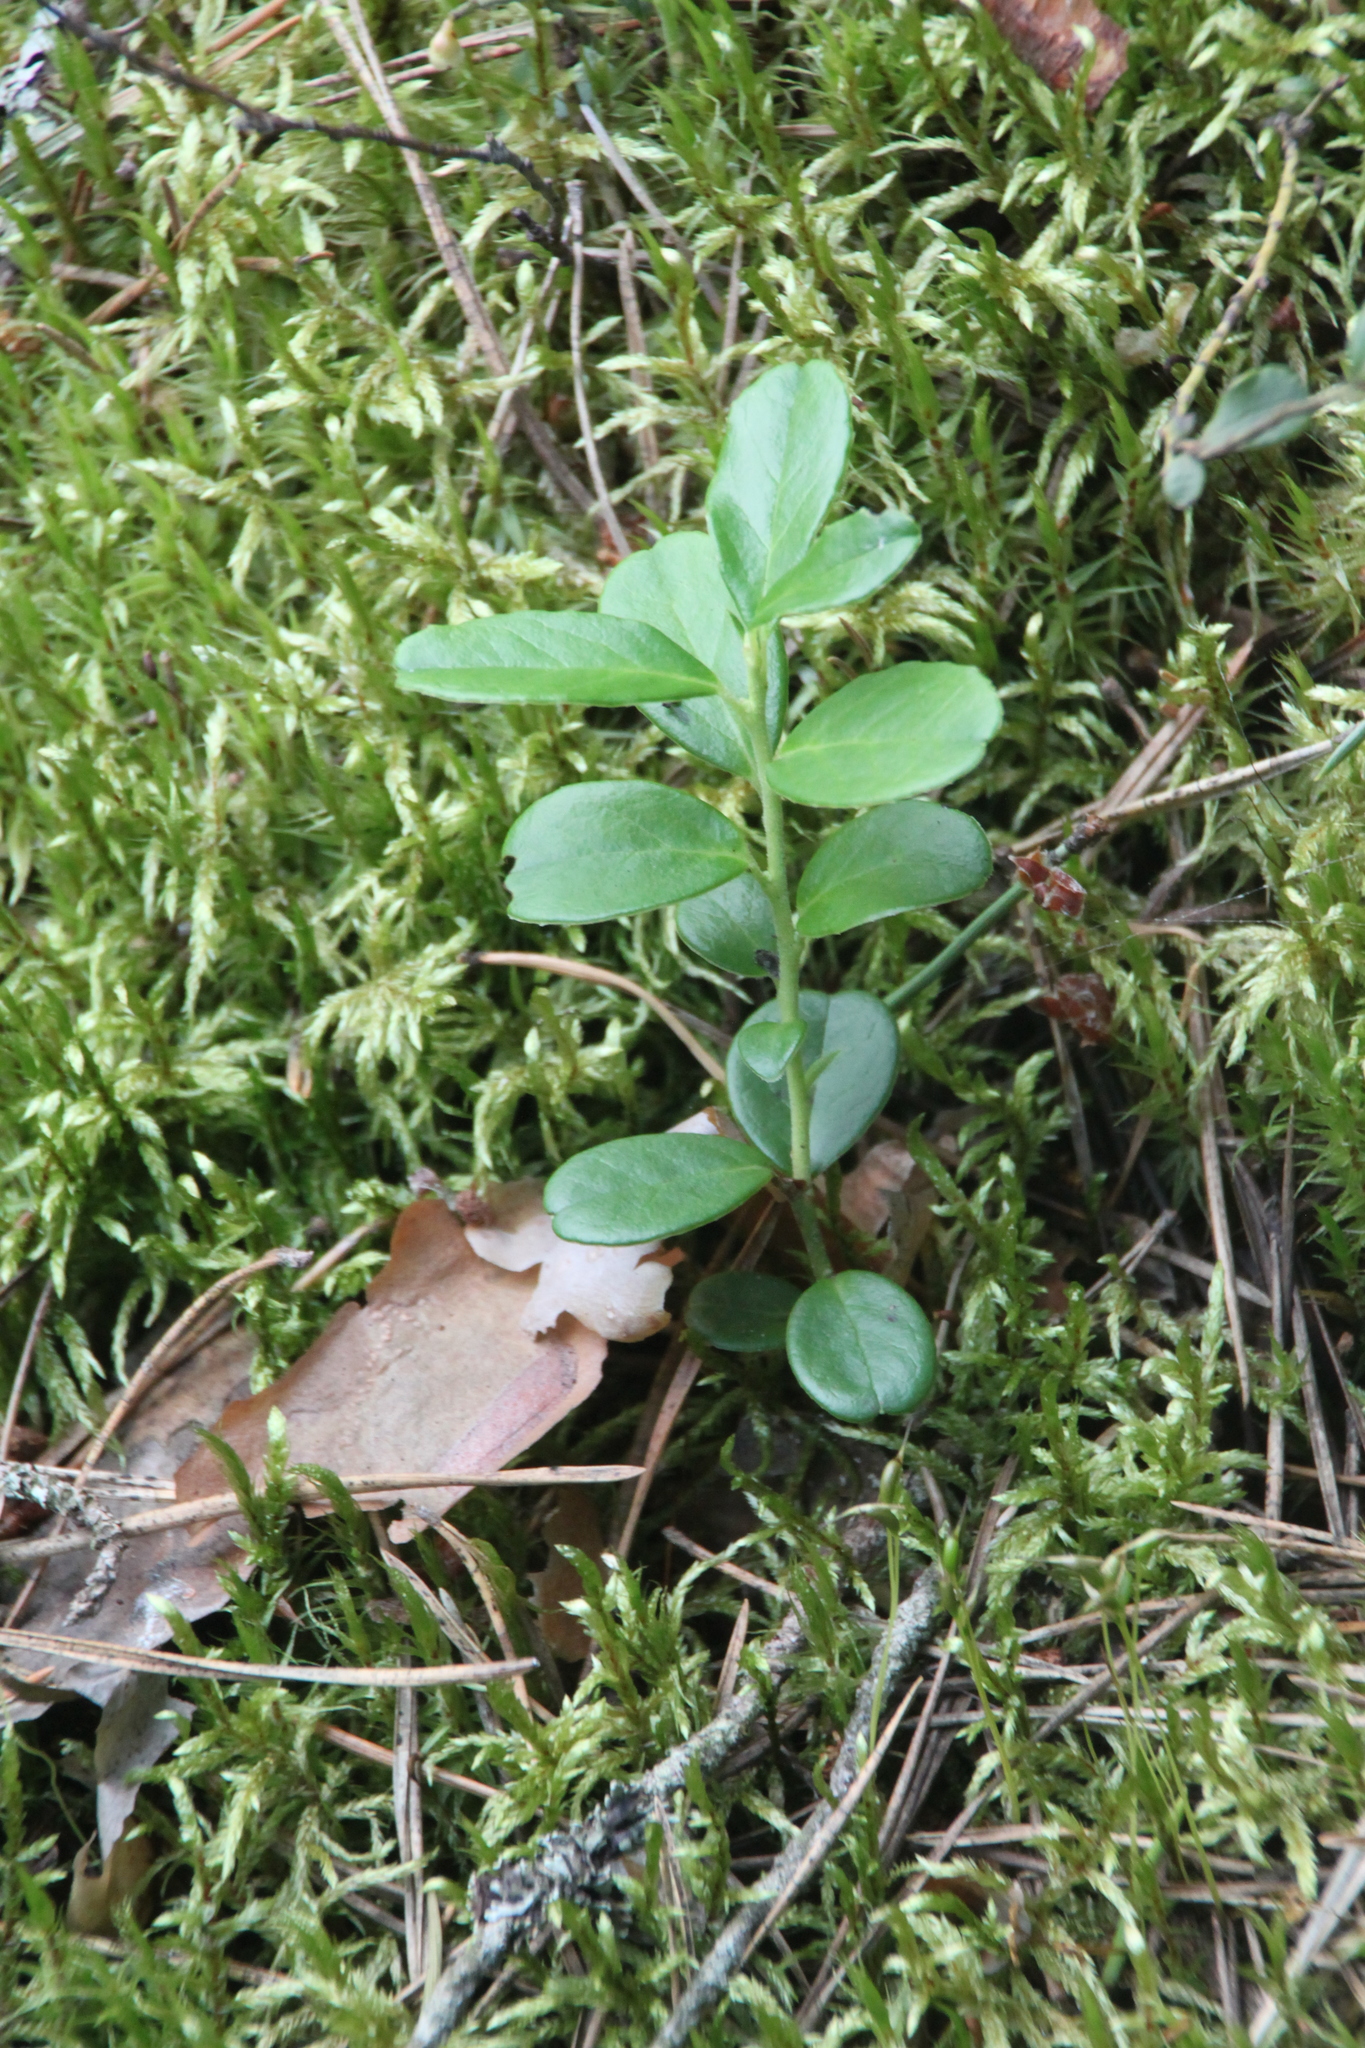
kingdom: Plantae
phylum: Tracheophyta
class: Magnoliopsida
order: Ericales
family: Ericaceae
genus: Vaccinium
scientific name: Vaccinium vitis-idaea
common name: Cowberry
